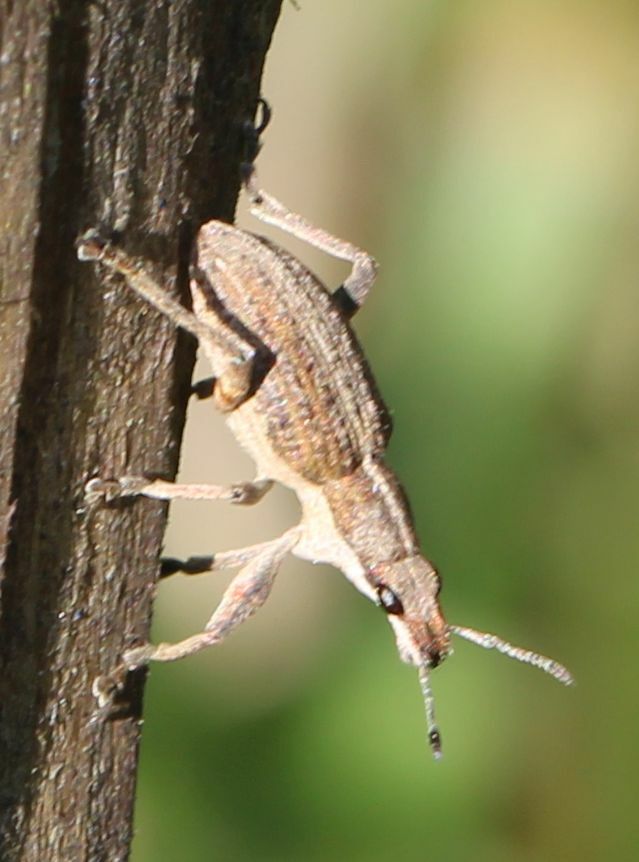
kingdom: Animalia
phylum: Arthropoda
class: Insecta
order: Coleoptera
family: Curculionidae
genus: Charagmus
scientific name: Charagmus gressorius
